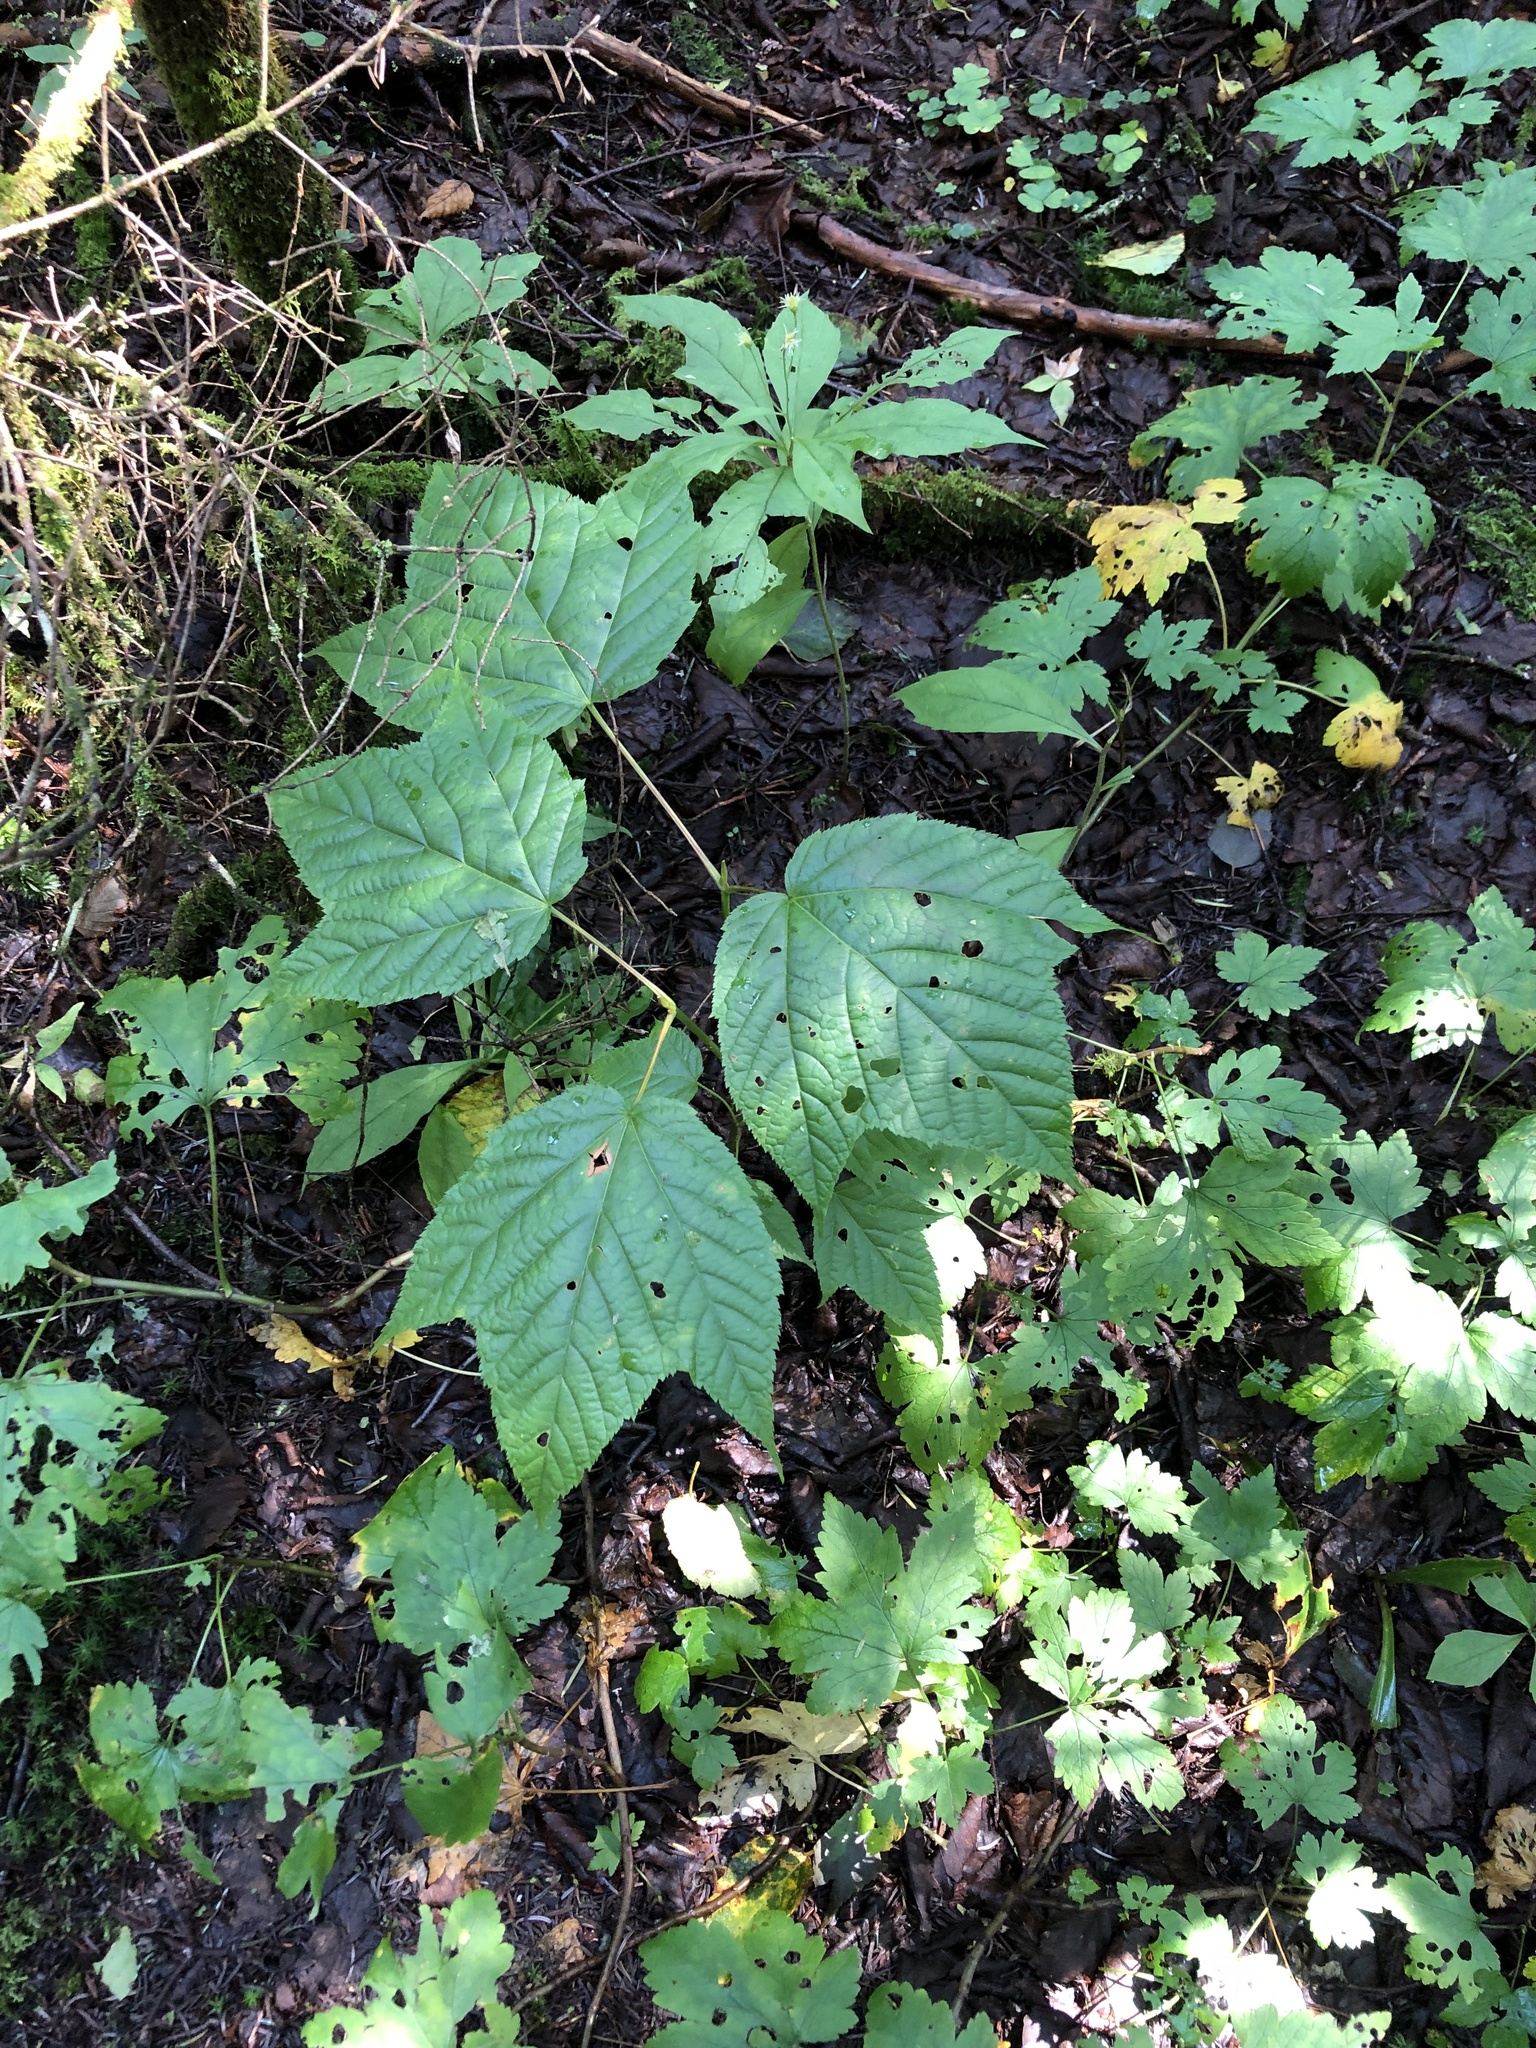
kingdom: Plantae
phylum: Tracheophyta
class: Magnoliopsida
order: Sapindales
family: Sapindaceae
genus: Acer
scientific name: Acer pensylvanicum
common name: Moosewood
